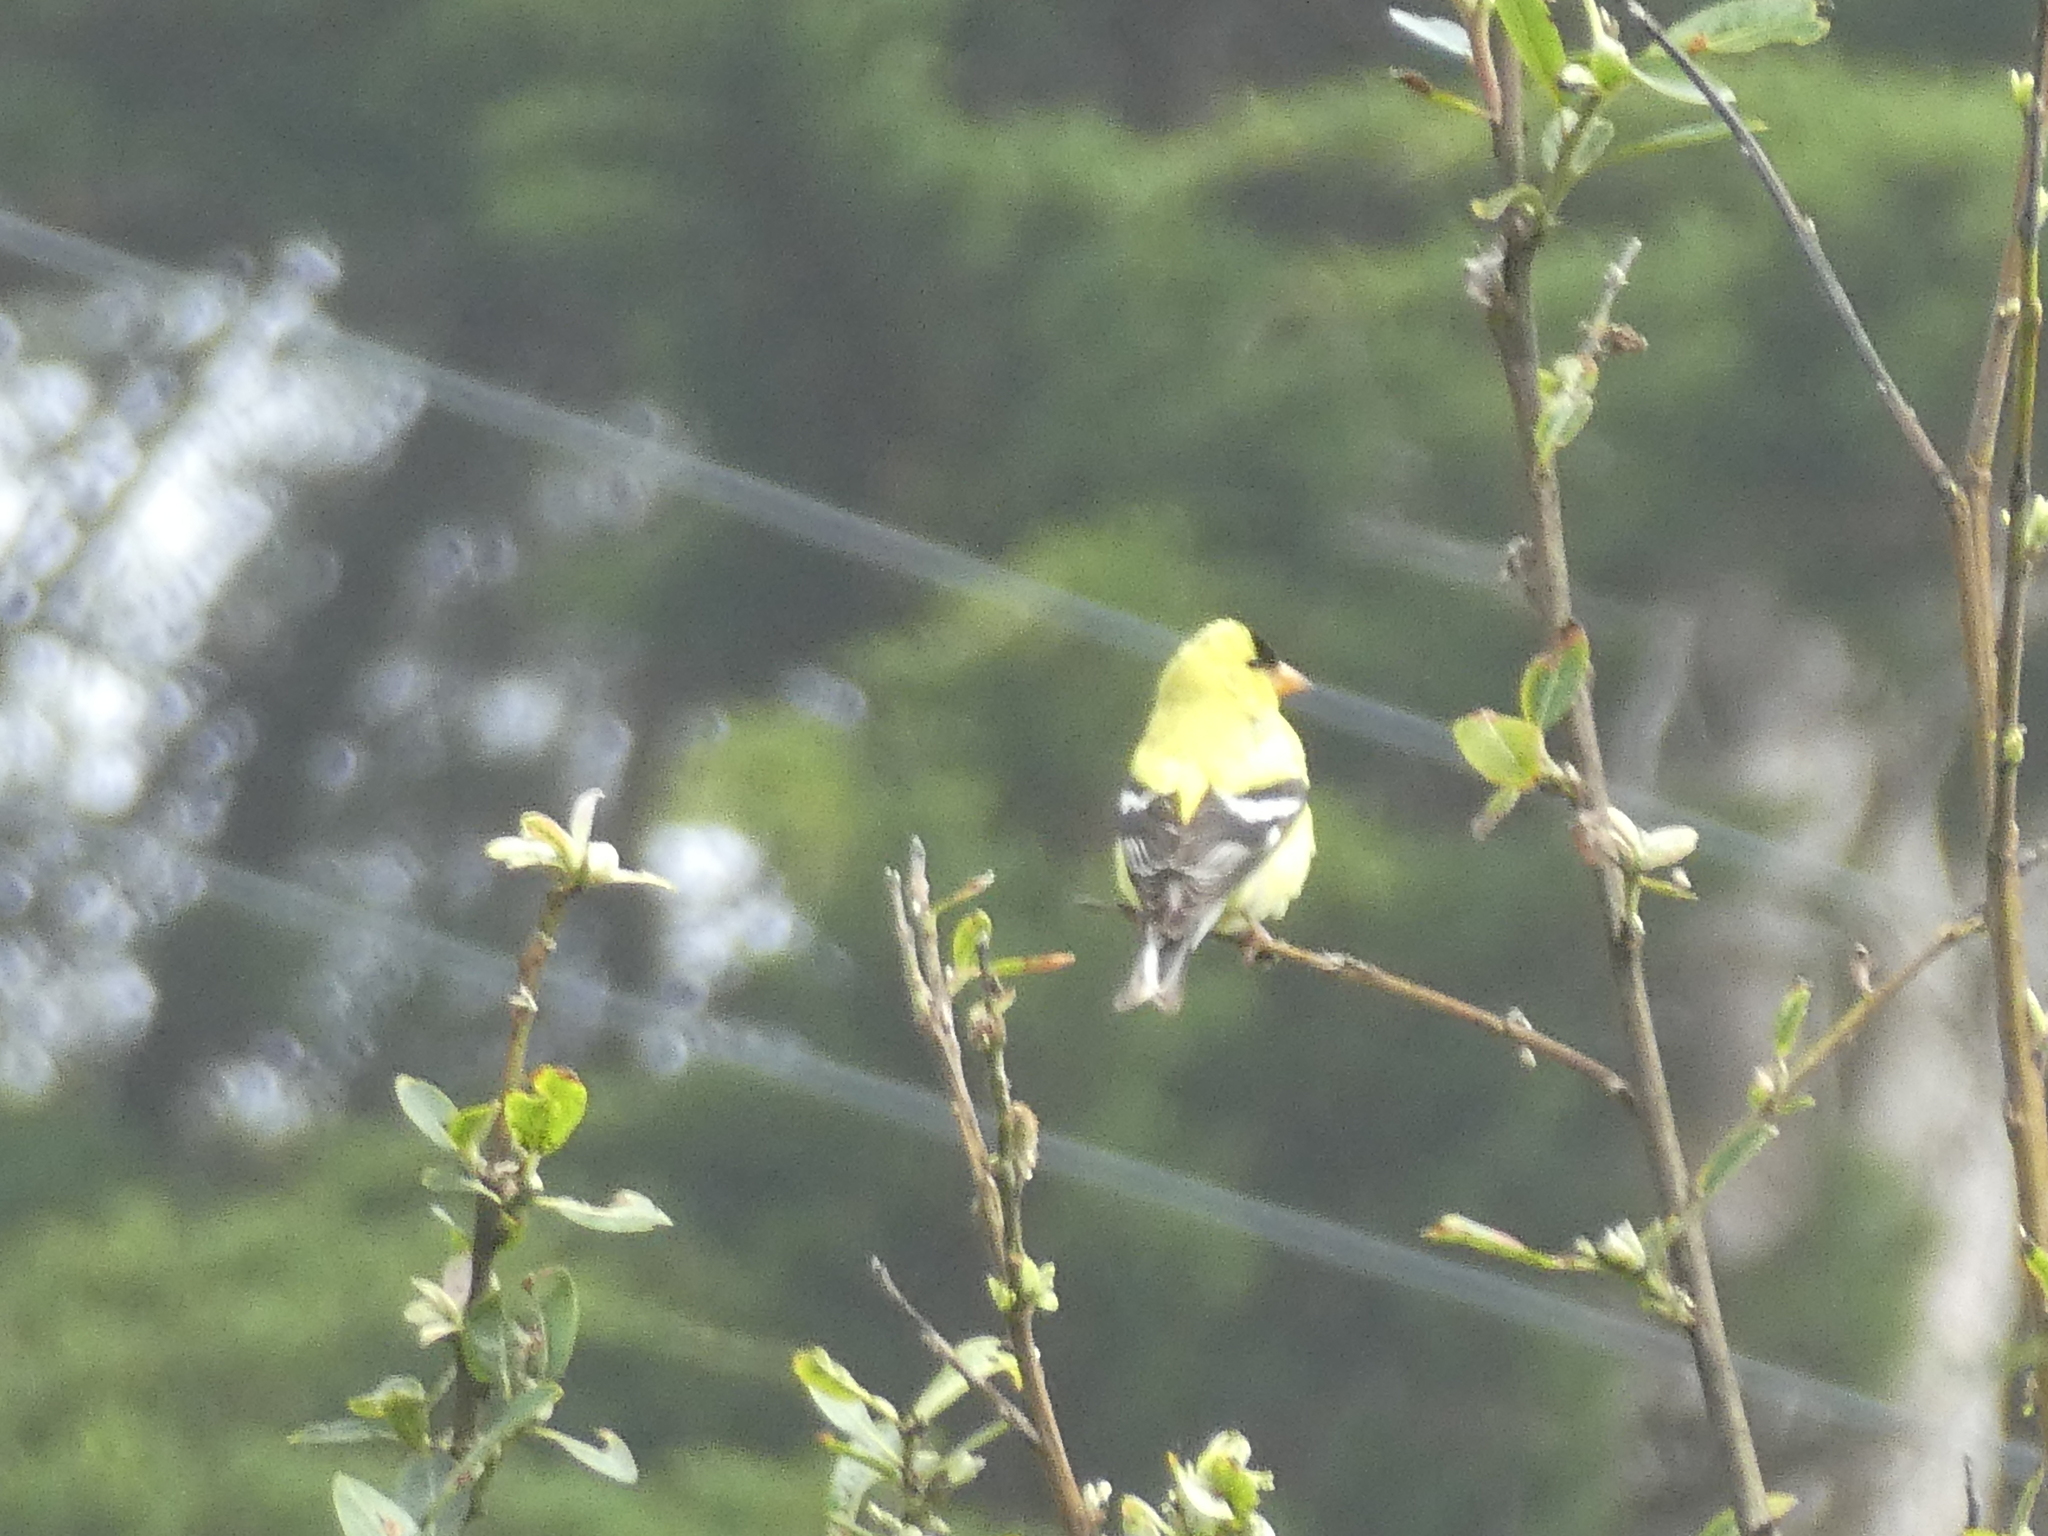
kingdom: Animalia
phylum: Chordata
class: Aves
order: Passeriformes
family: Fringillidae
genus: Spinus
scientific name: Spinus tristis
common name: American goldfinch
